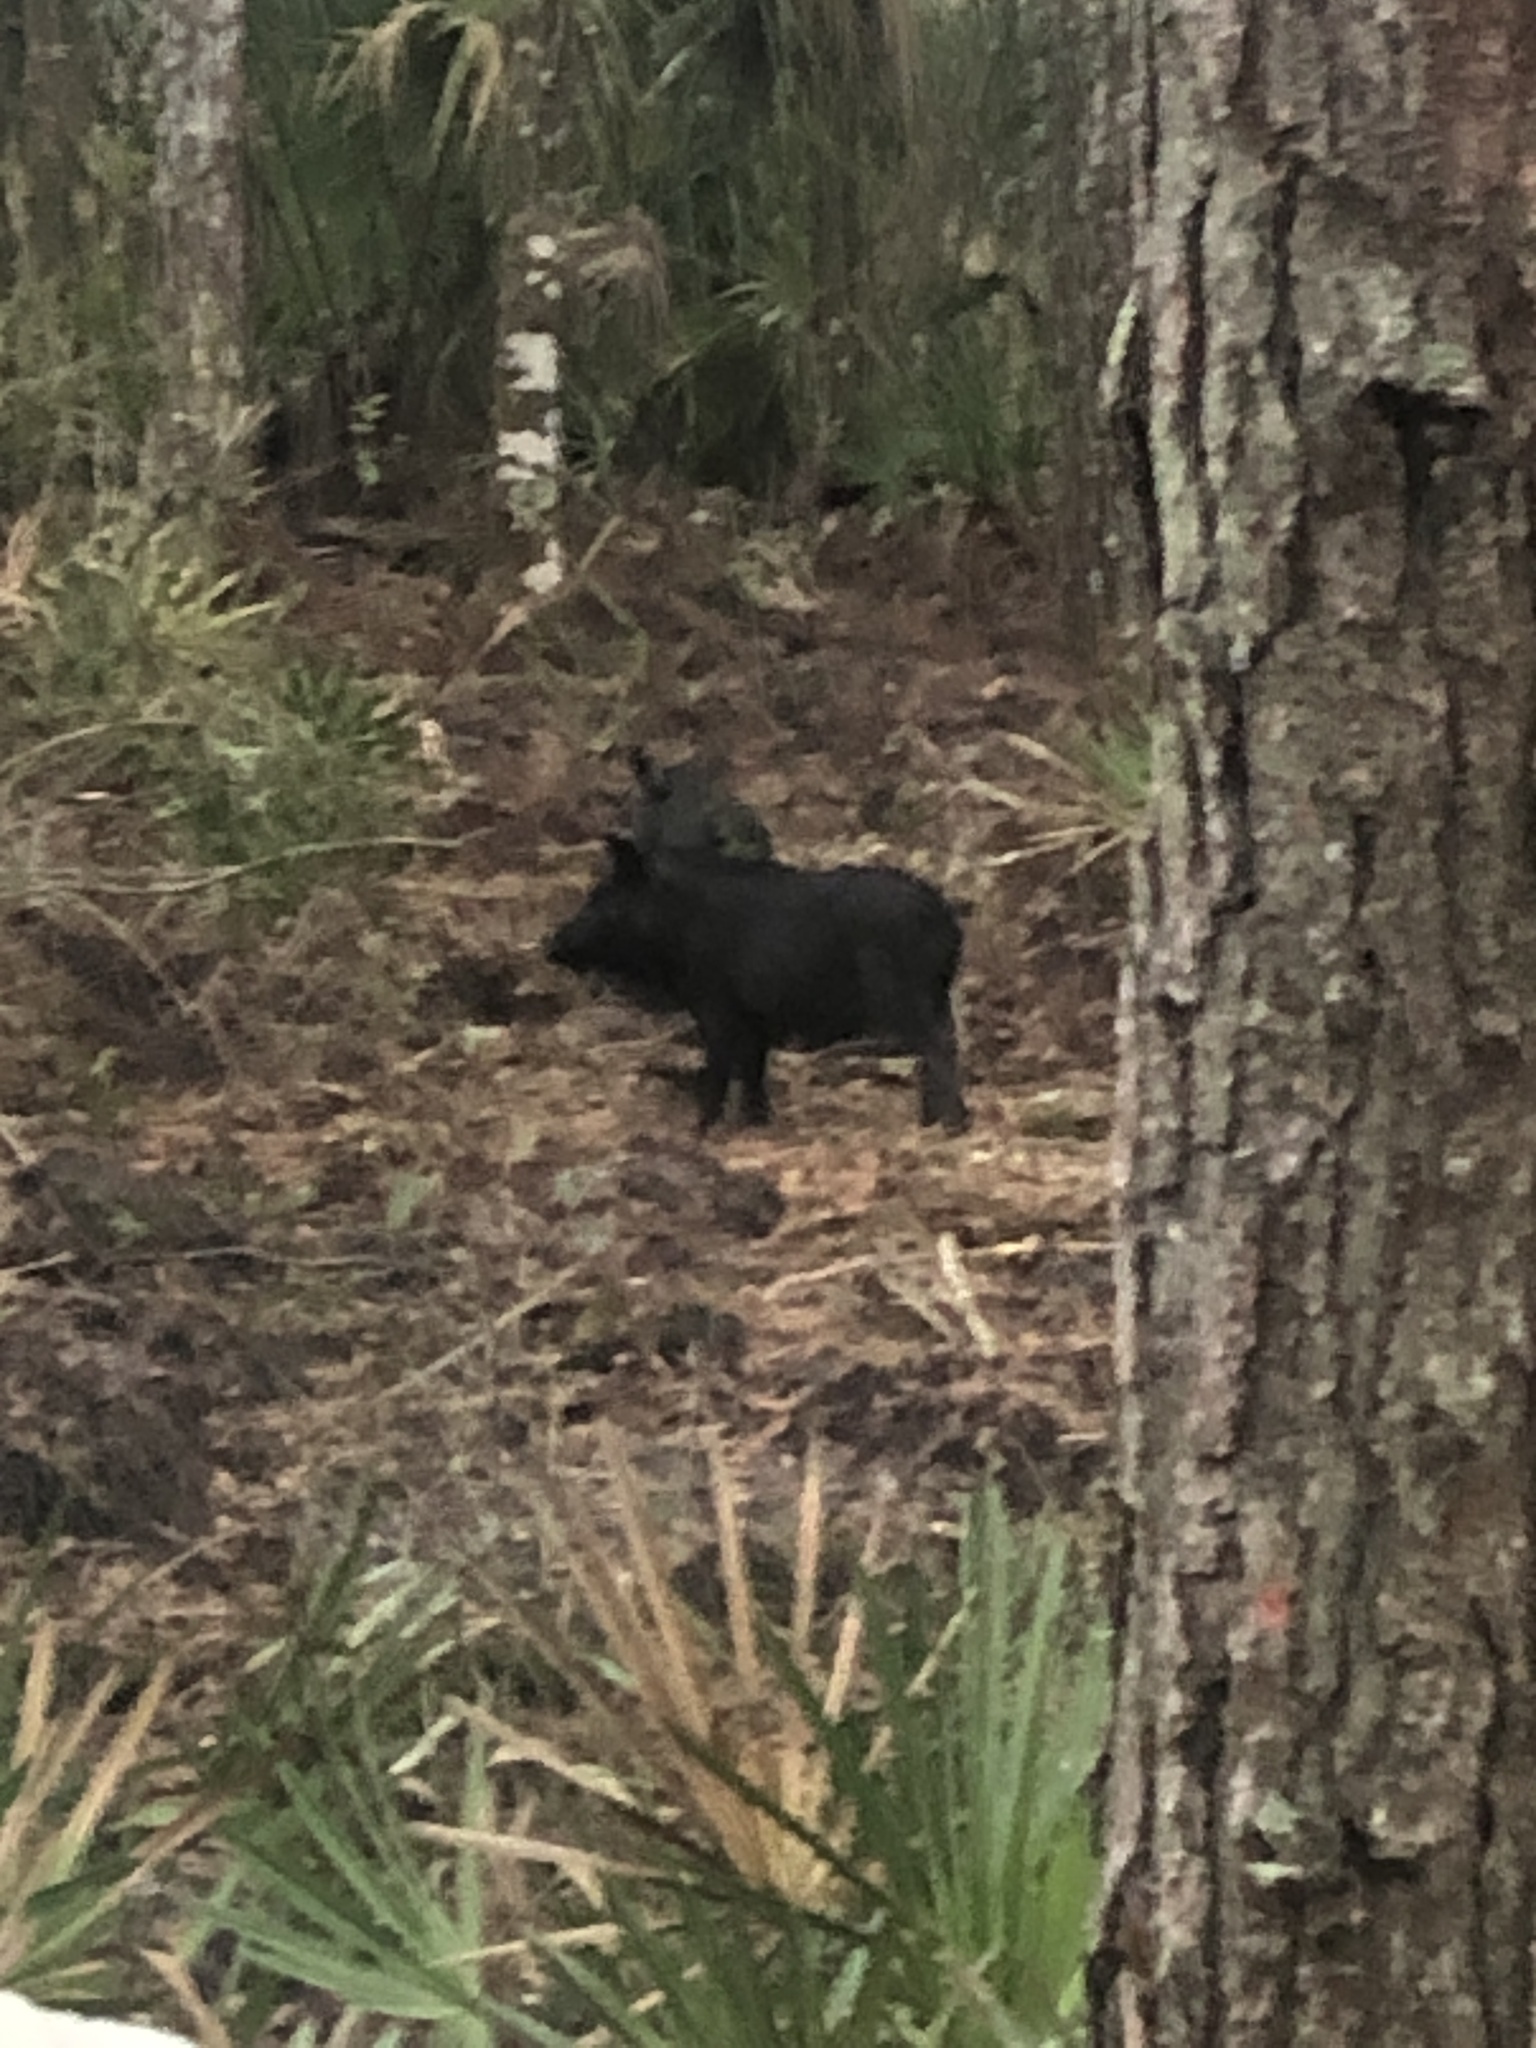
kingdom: Animalia
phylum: Chordata
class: Mammalia
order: Artiodactyla
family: Suidae
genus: Sus
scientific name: Sus scrofa
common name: Wild boar
